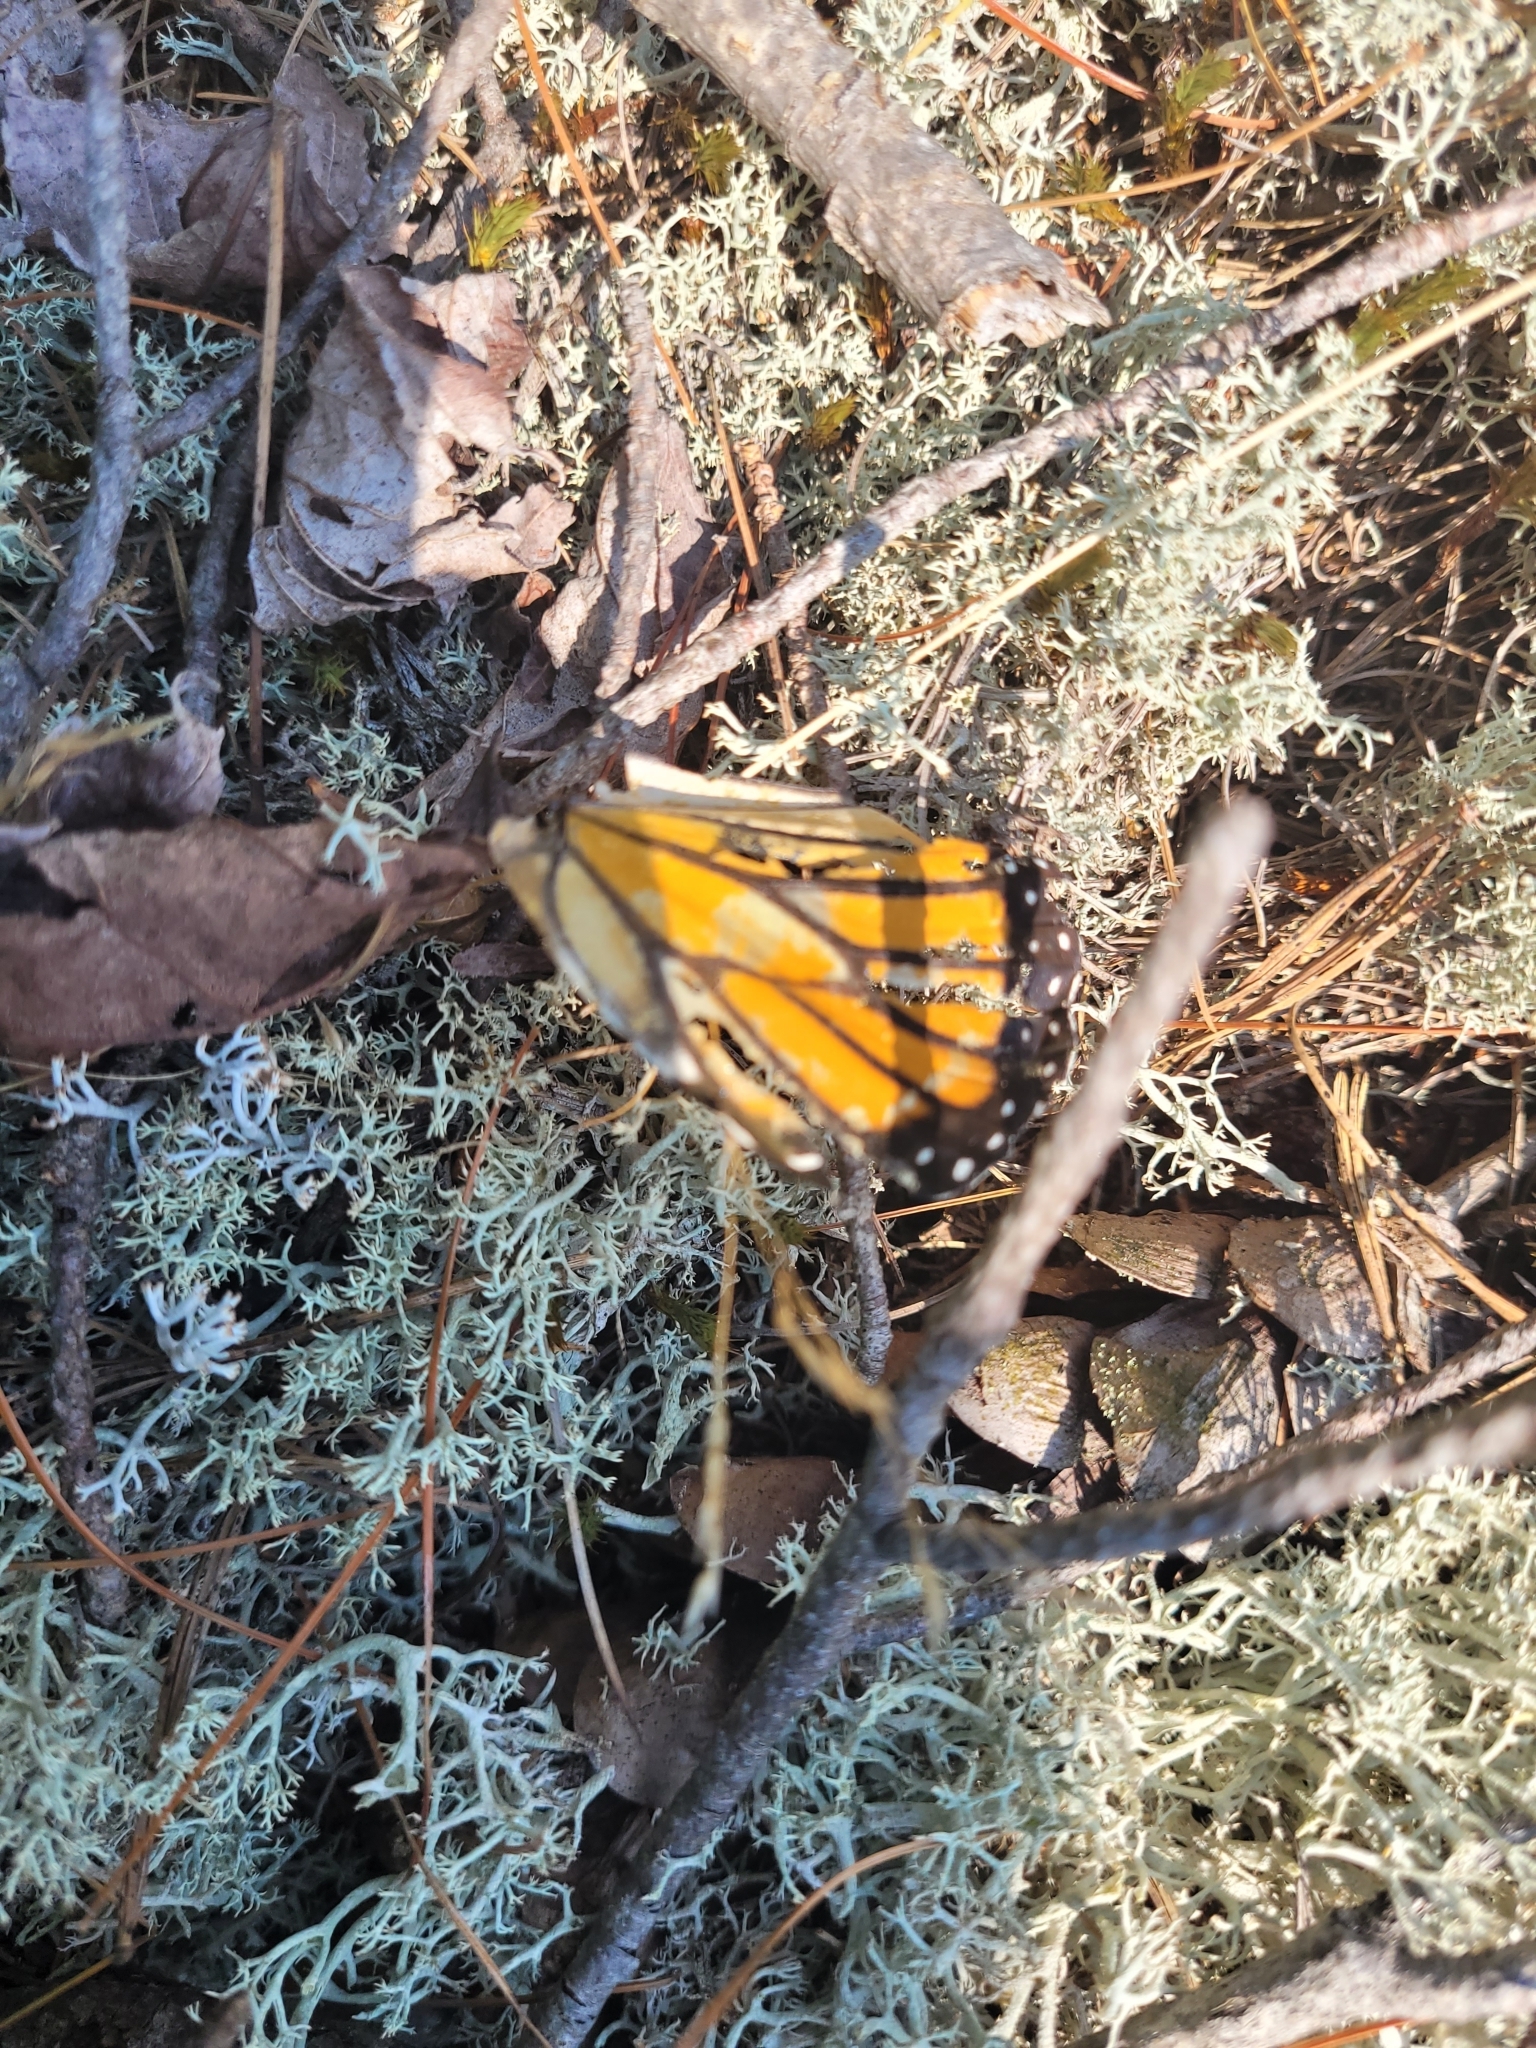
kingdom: Animalia
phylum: Arthropoda
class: Insecta
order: Lepidoptera
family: Nymphalidae
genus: Danaus
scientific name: Danaus plexippus
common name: Monarch
